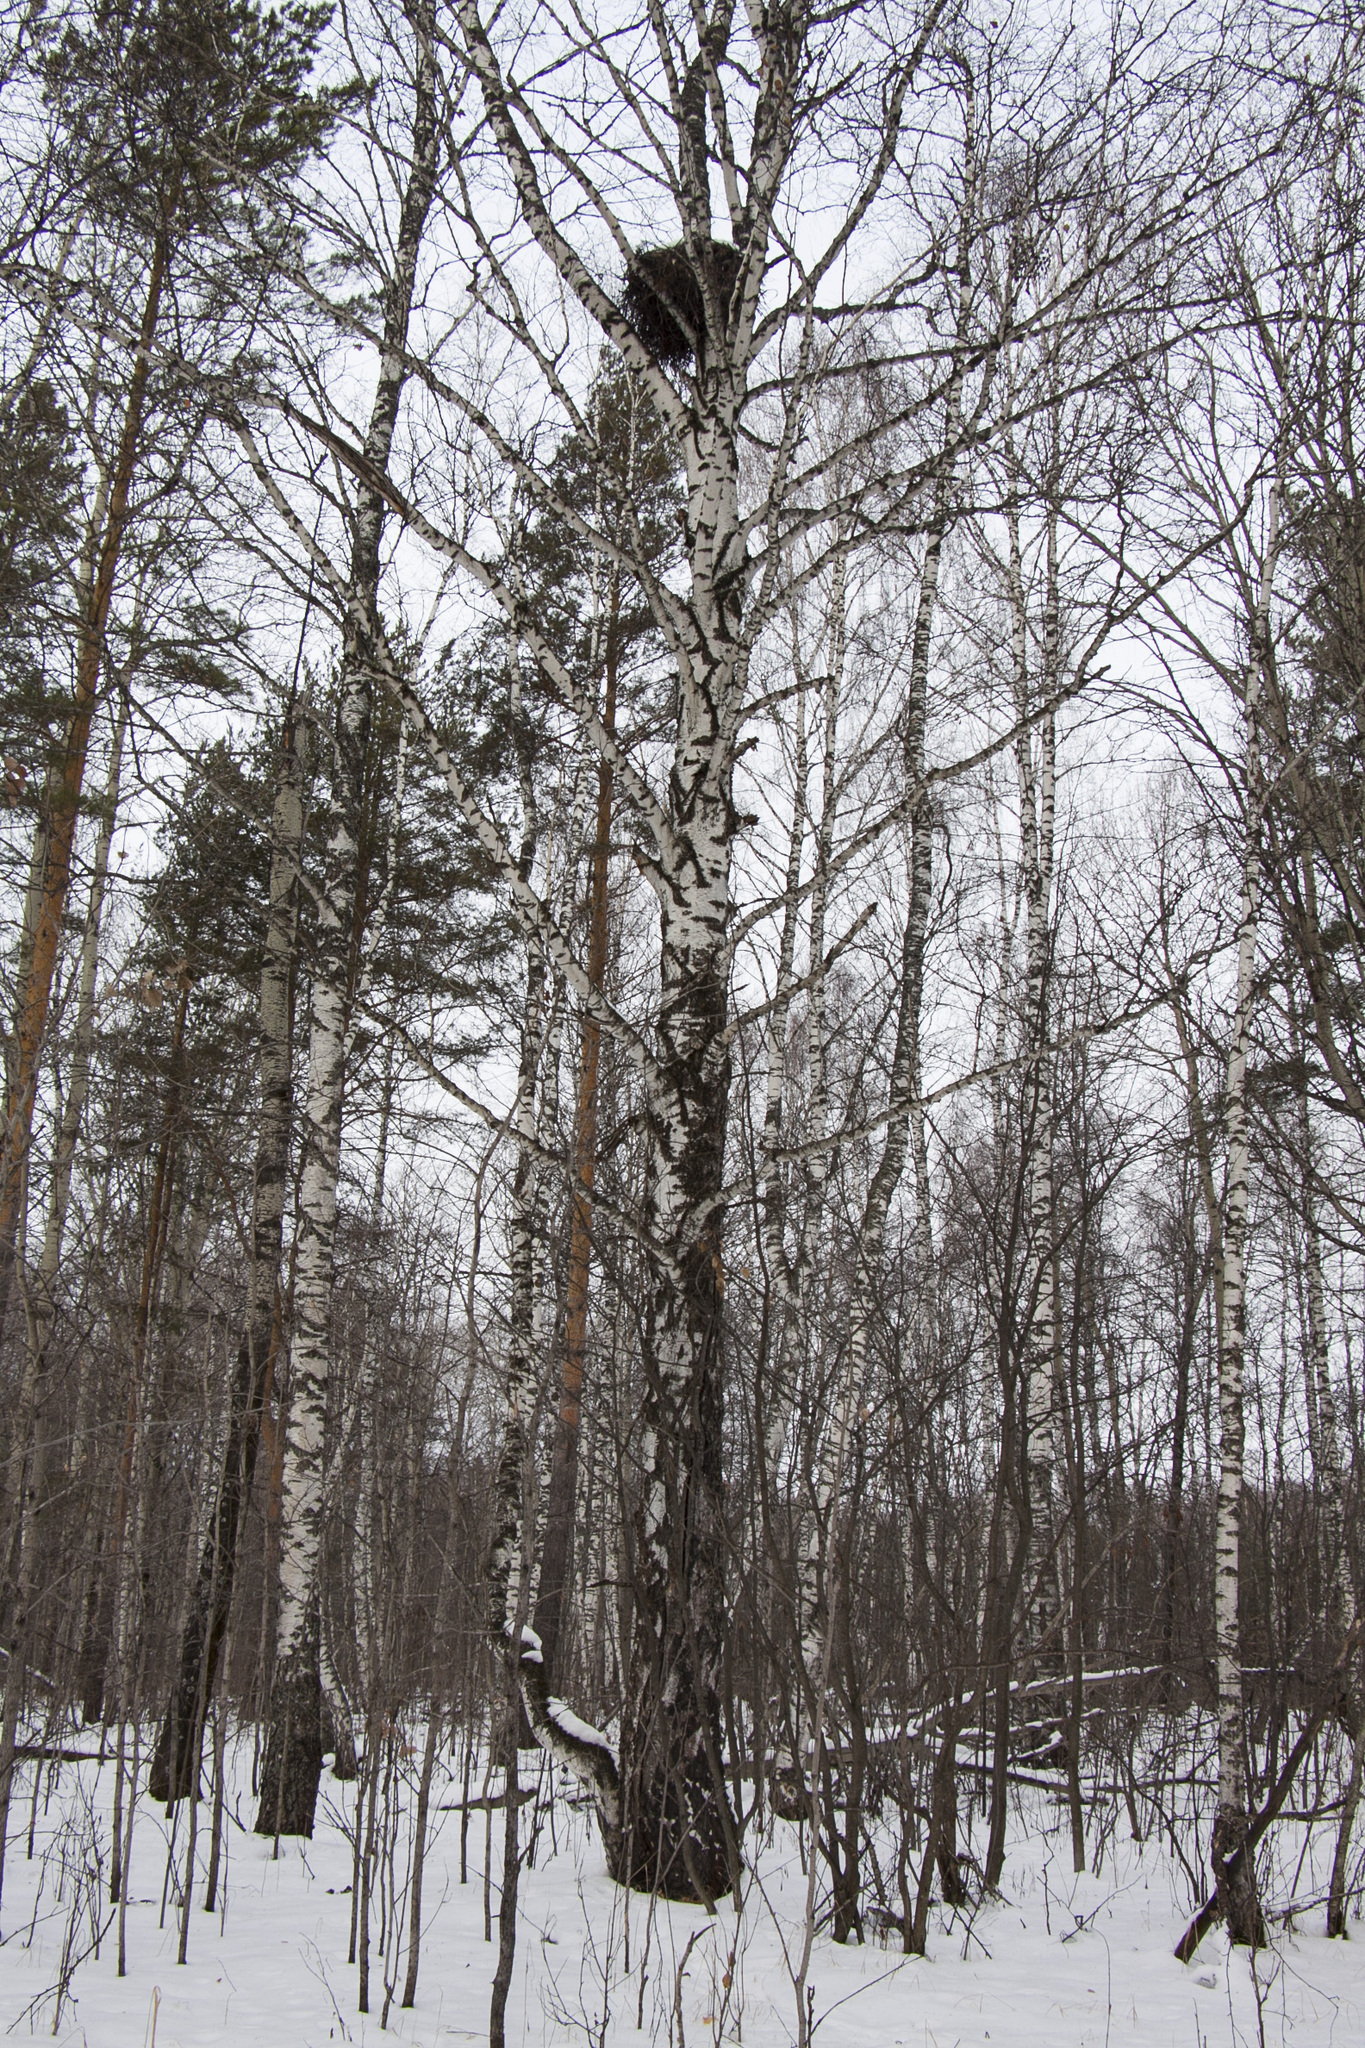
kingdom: Plantae
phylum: Tracheophyta
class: Magnoliopsida
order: Fagales
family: Betulaceae
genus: Betula
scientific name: Betula pendula
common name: Silver birch
